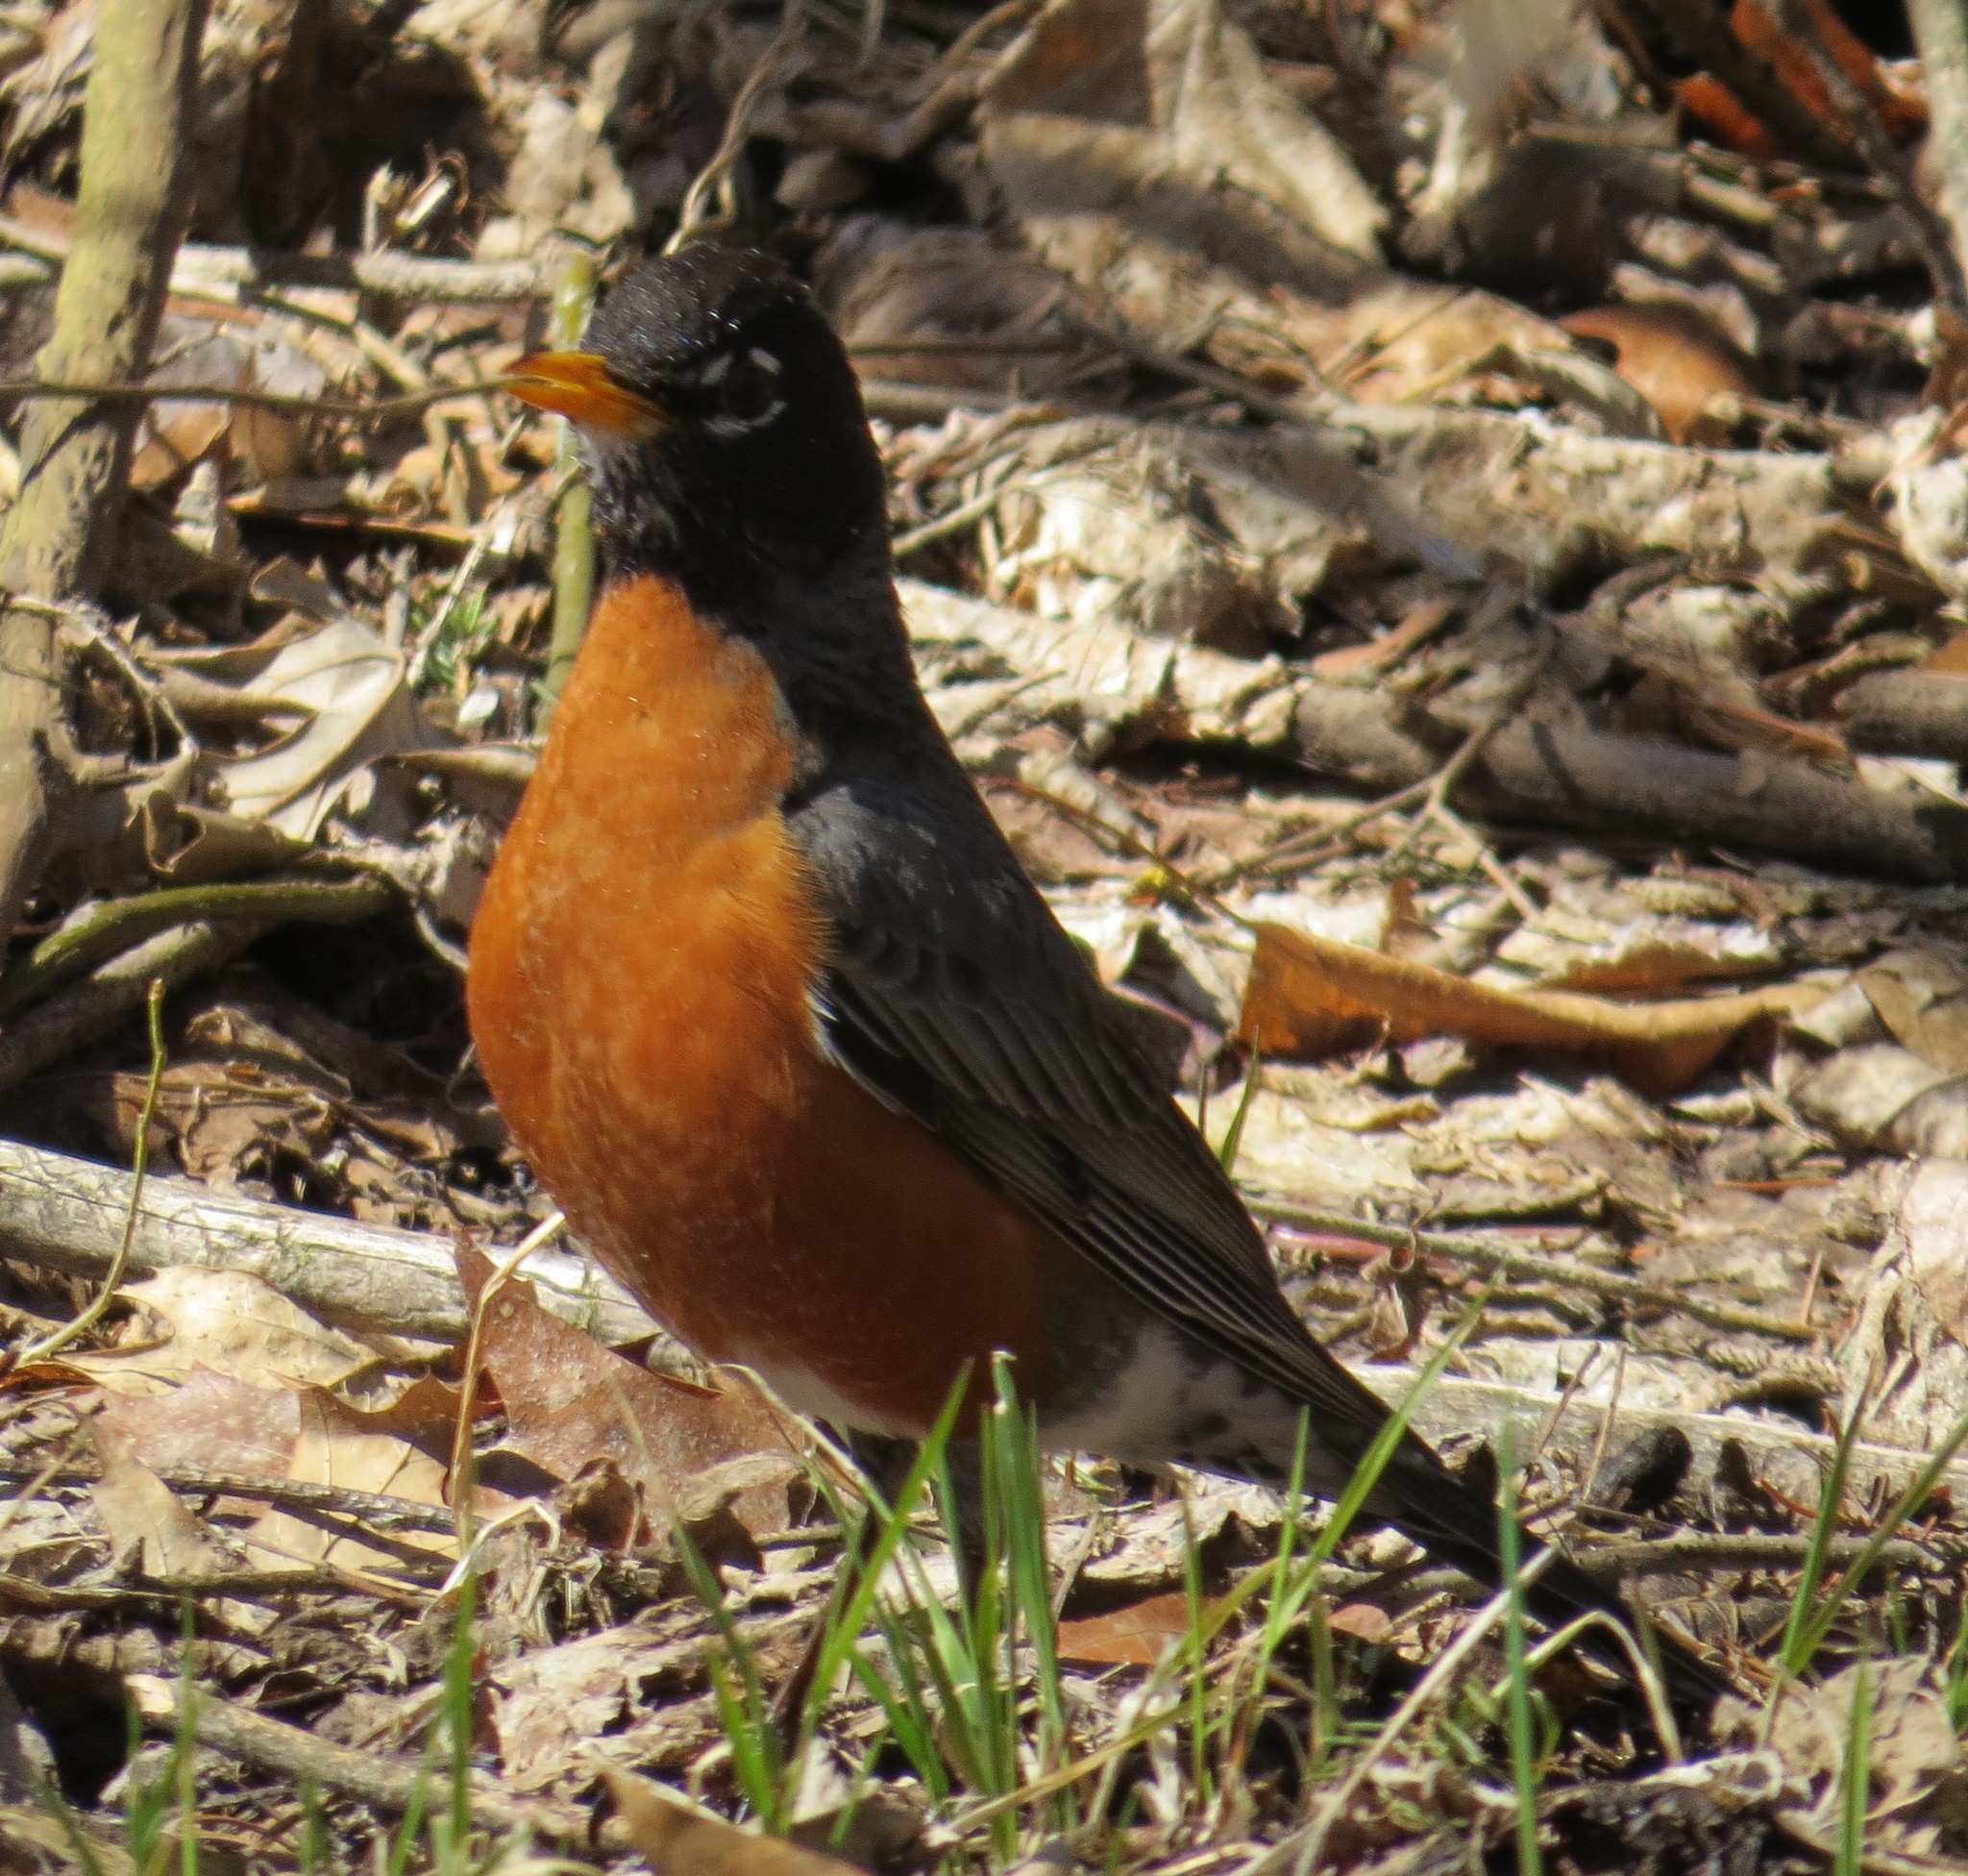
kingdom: Animalia
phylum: Chordata
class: Aves
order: Passeriformes
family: Turdidae
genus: Turdus
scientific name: Turdus migratorius
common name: American robin
